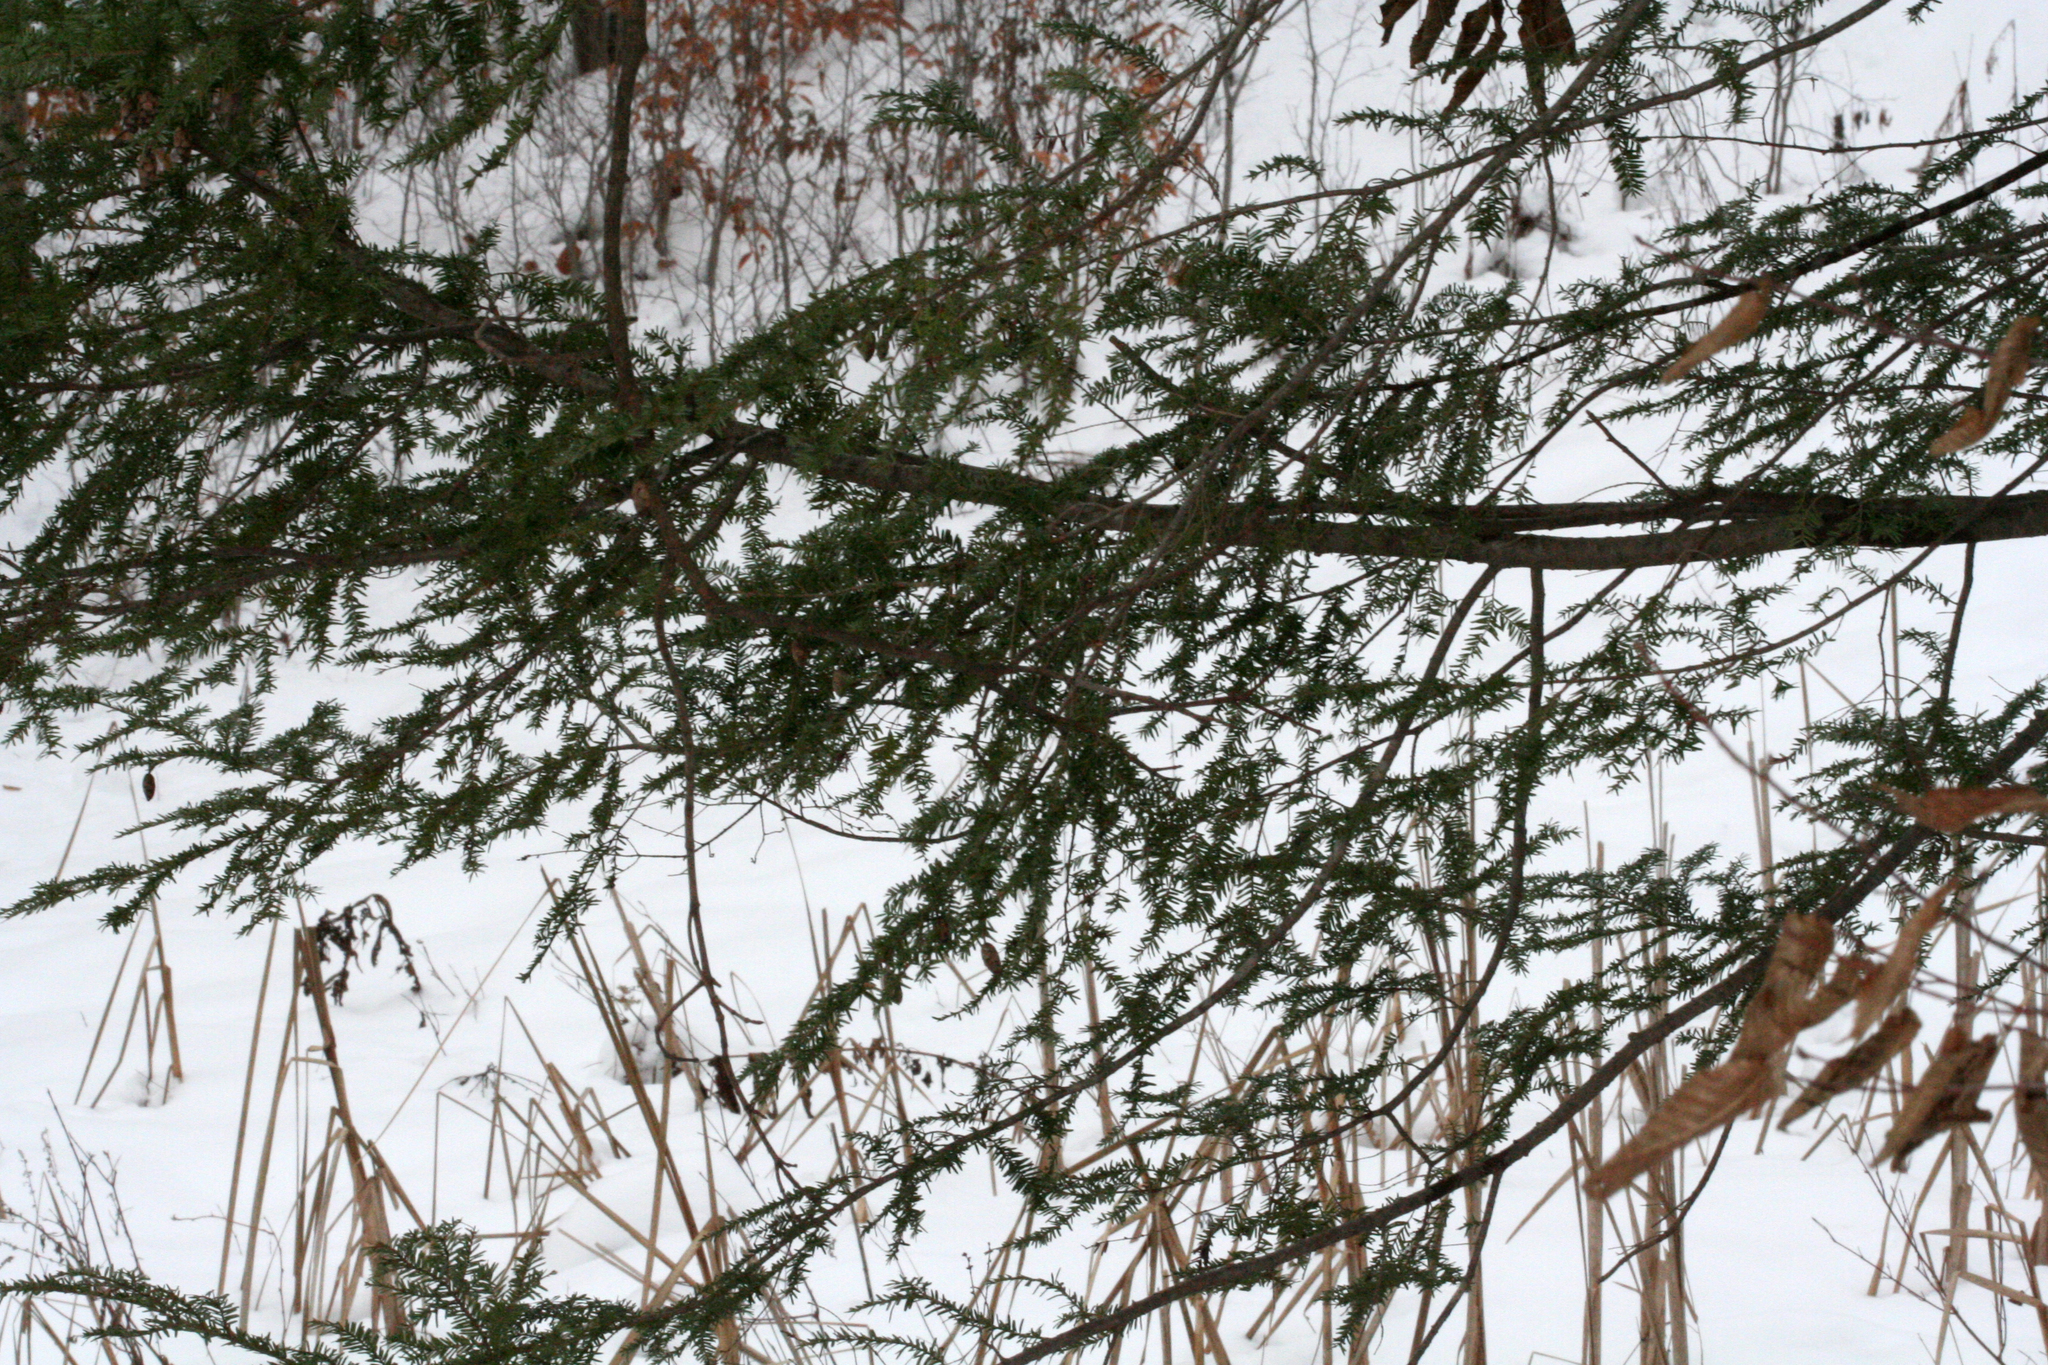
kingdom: Plantae
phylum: Tracheophyta
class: Pinopsida
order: Pinales
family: Pinaceae
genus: Tsuga
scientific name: Tsuga canadensis
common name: Eastern hemlock
